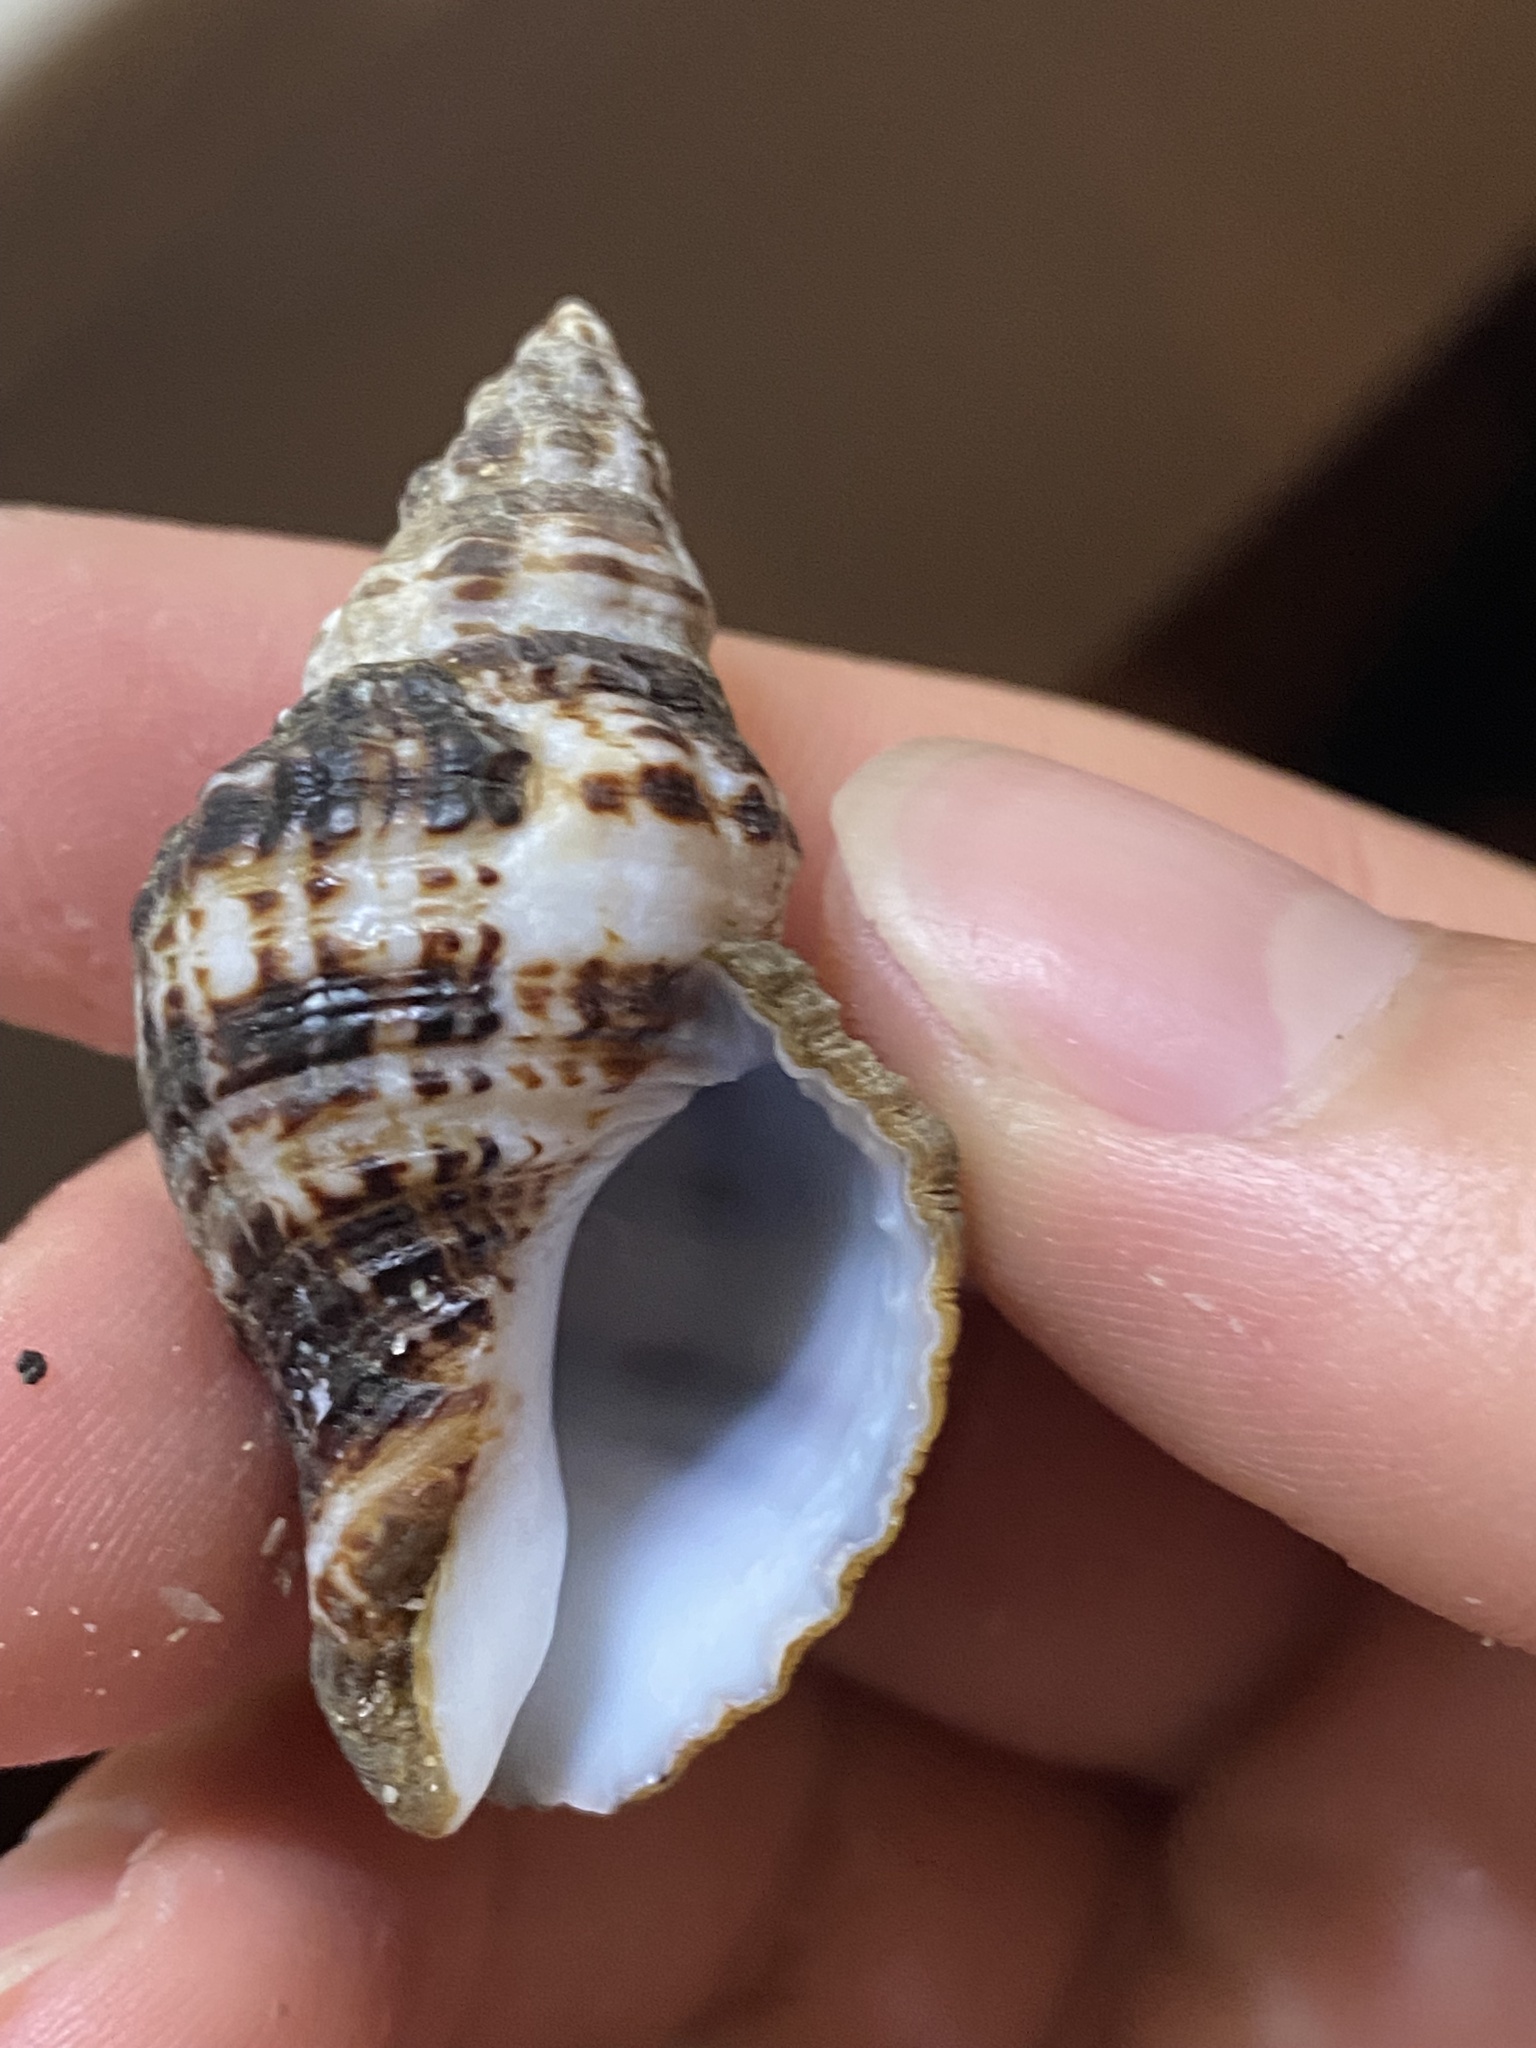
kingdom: Animalia
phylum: Mollusca
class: Gastropoda
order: Neogastropoda
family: Pisaniidae
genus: Pusio
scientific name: Pusio elegans
